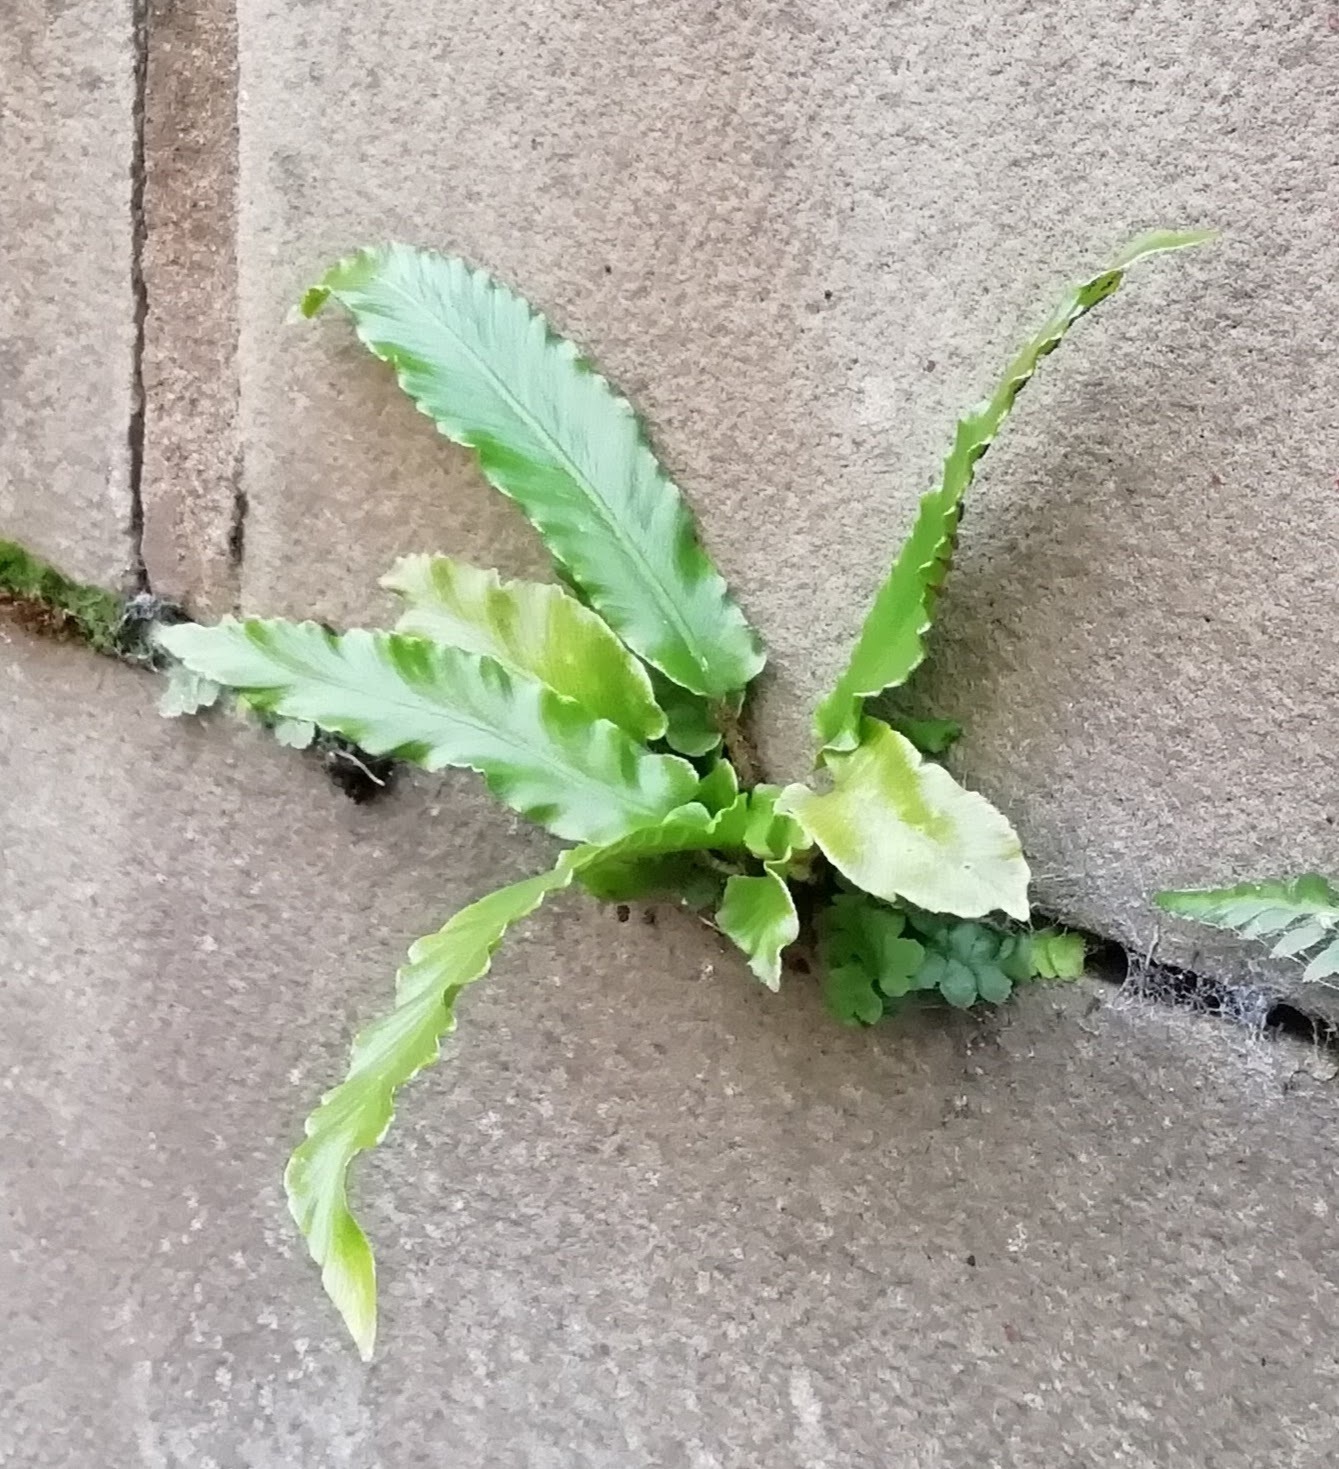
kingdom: Plantae
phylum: Tracheophyta
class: Polypodiopsida
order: Polypodiales
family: Aspleniaceae
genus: Asplenium
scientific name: Asplenium scolopendrium
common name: Hart's-tongue fern
